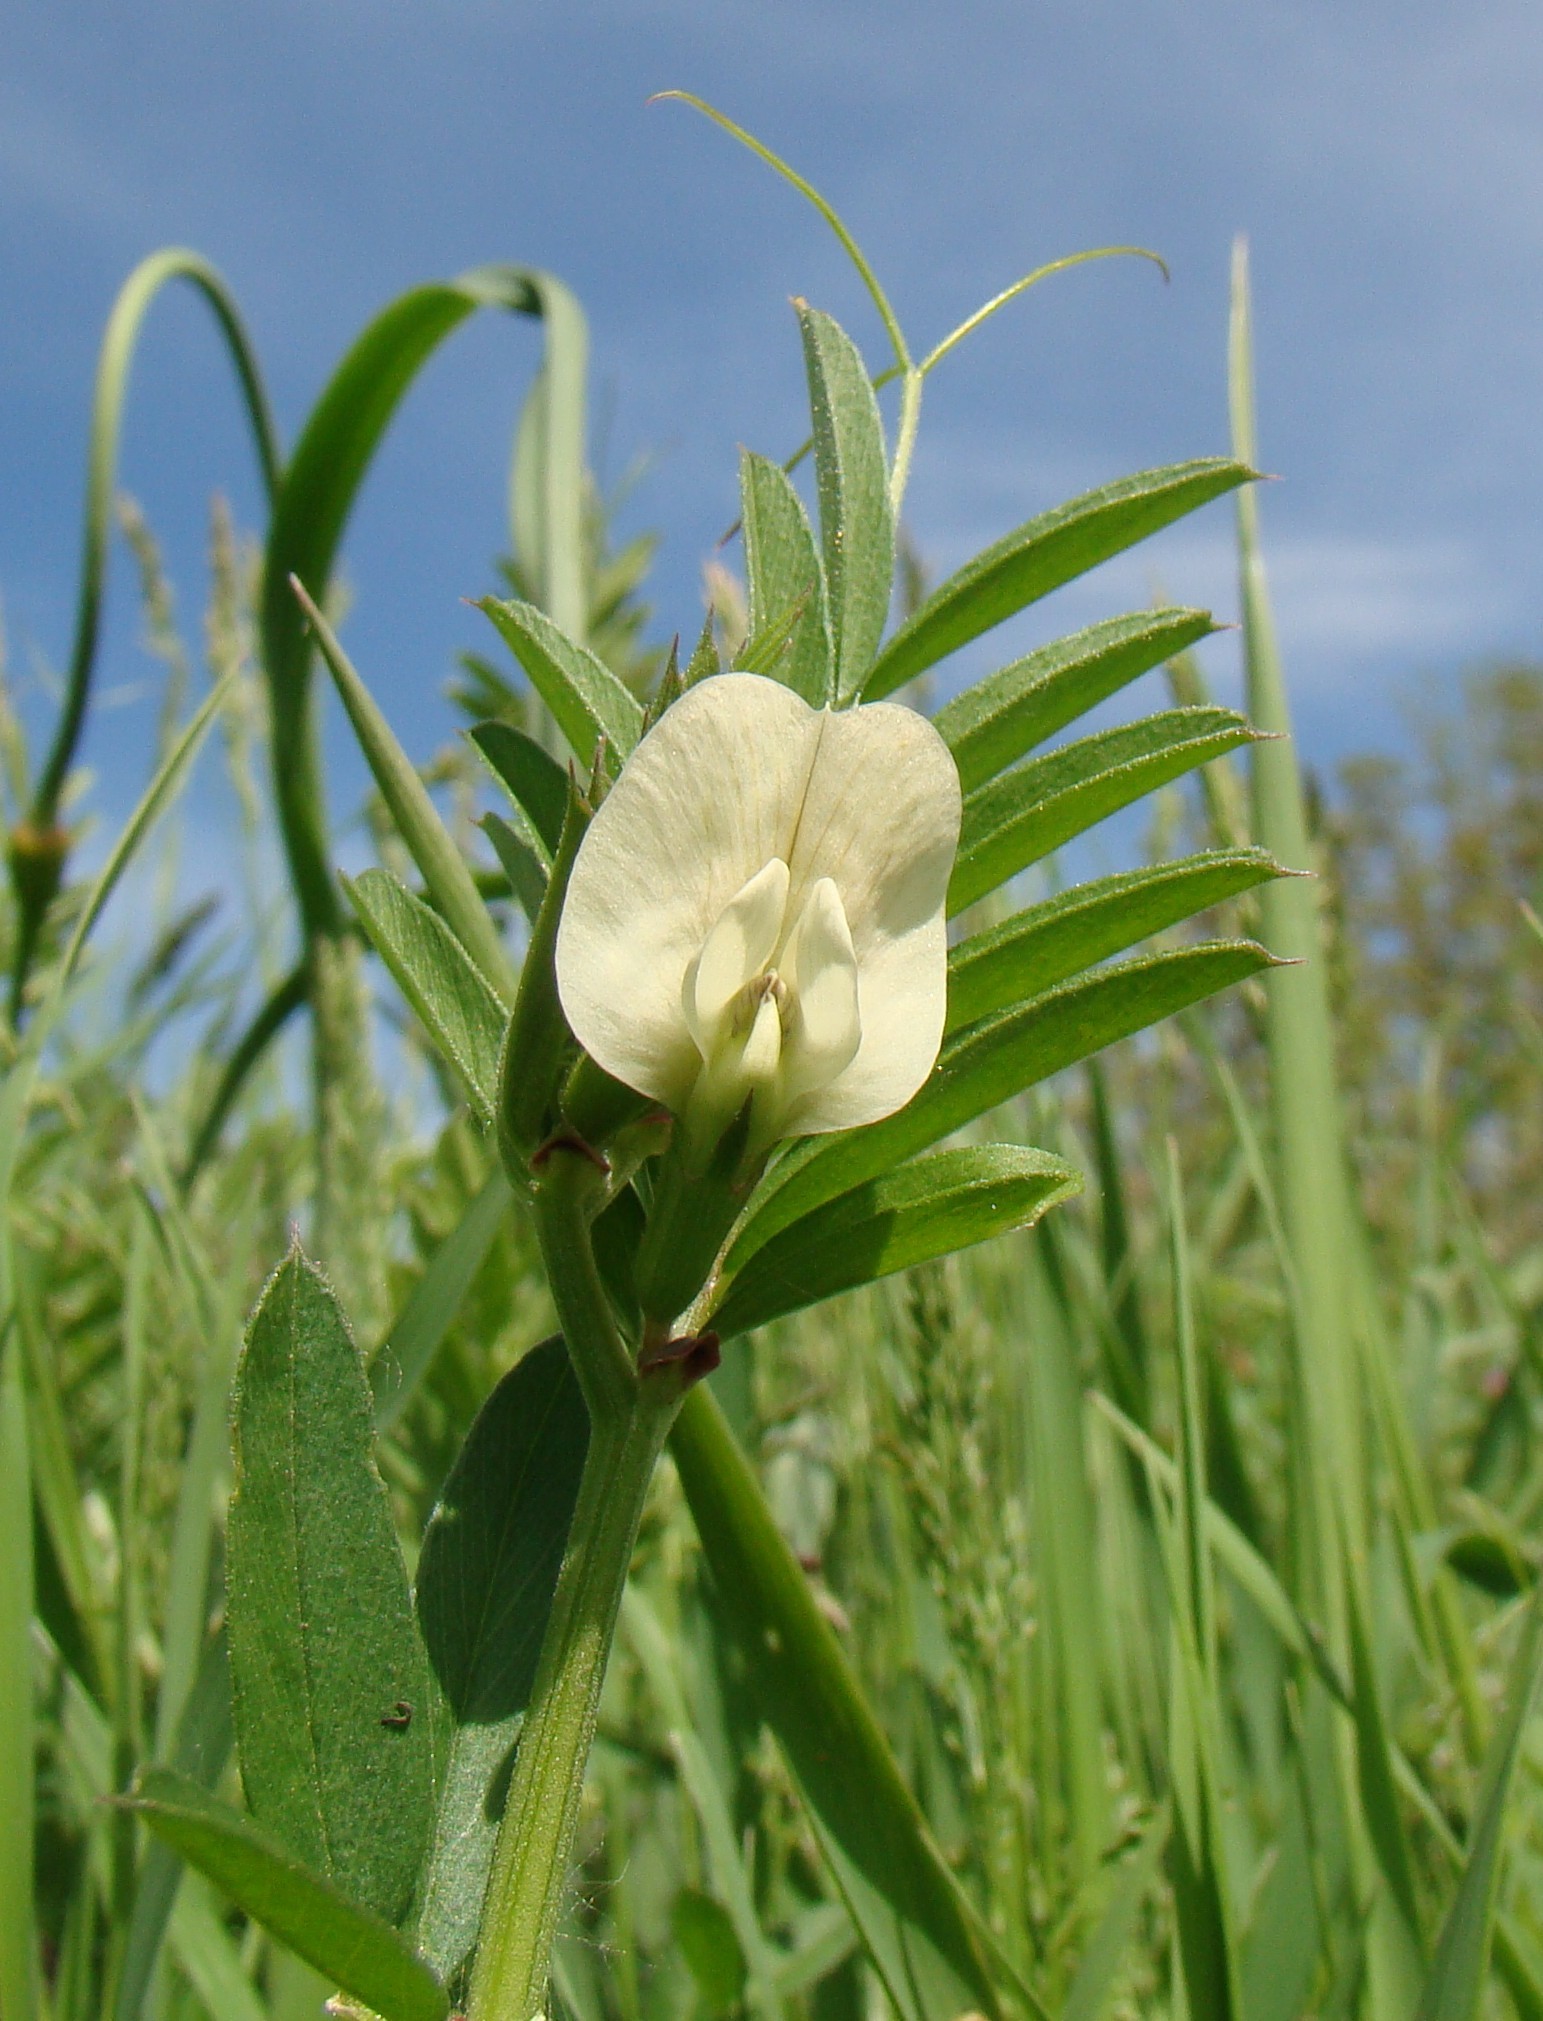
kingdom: Plantae
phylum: Tracheophyta
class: Magnoliopsida
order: Fabales
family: Fabaceae
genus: Vicia
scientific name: Vicia grandiflora
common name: Large yellow vetch
